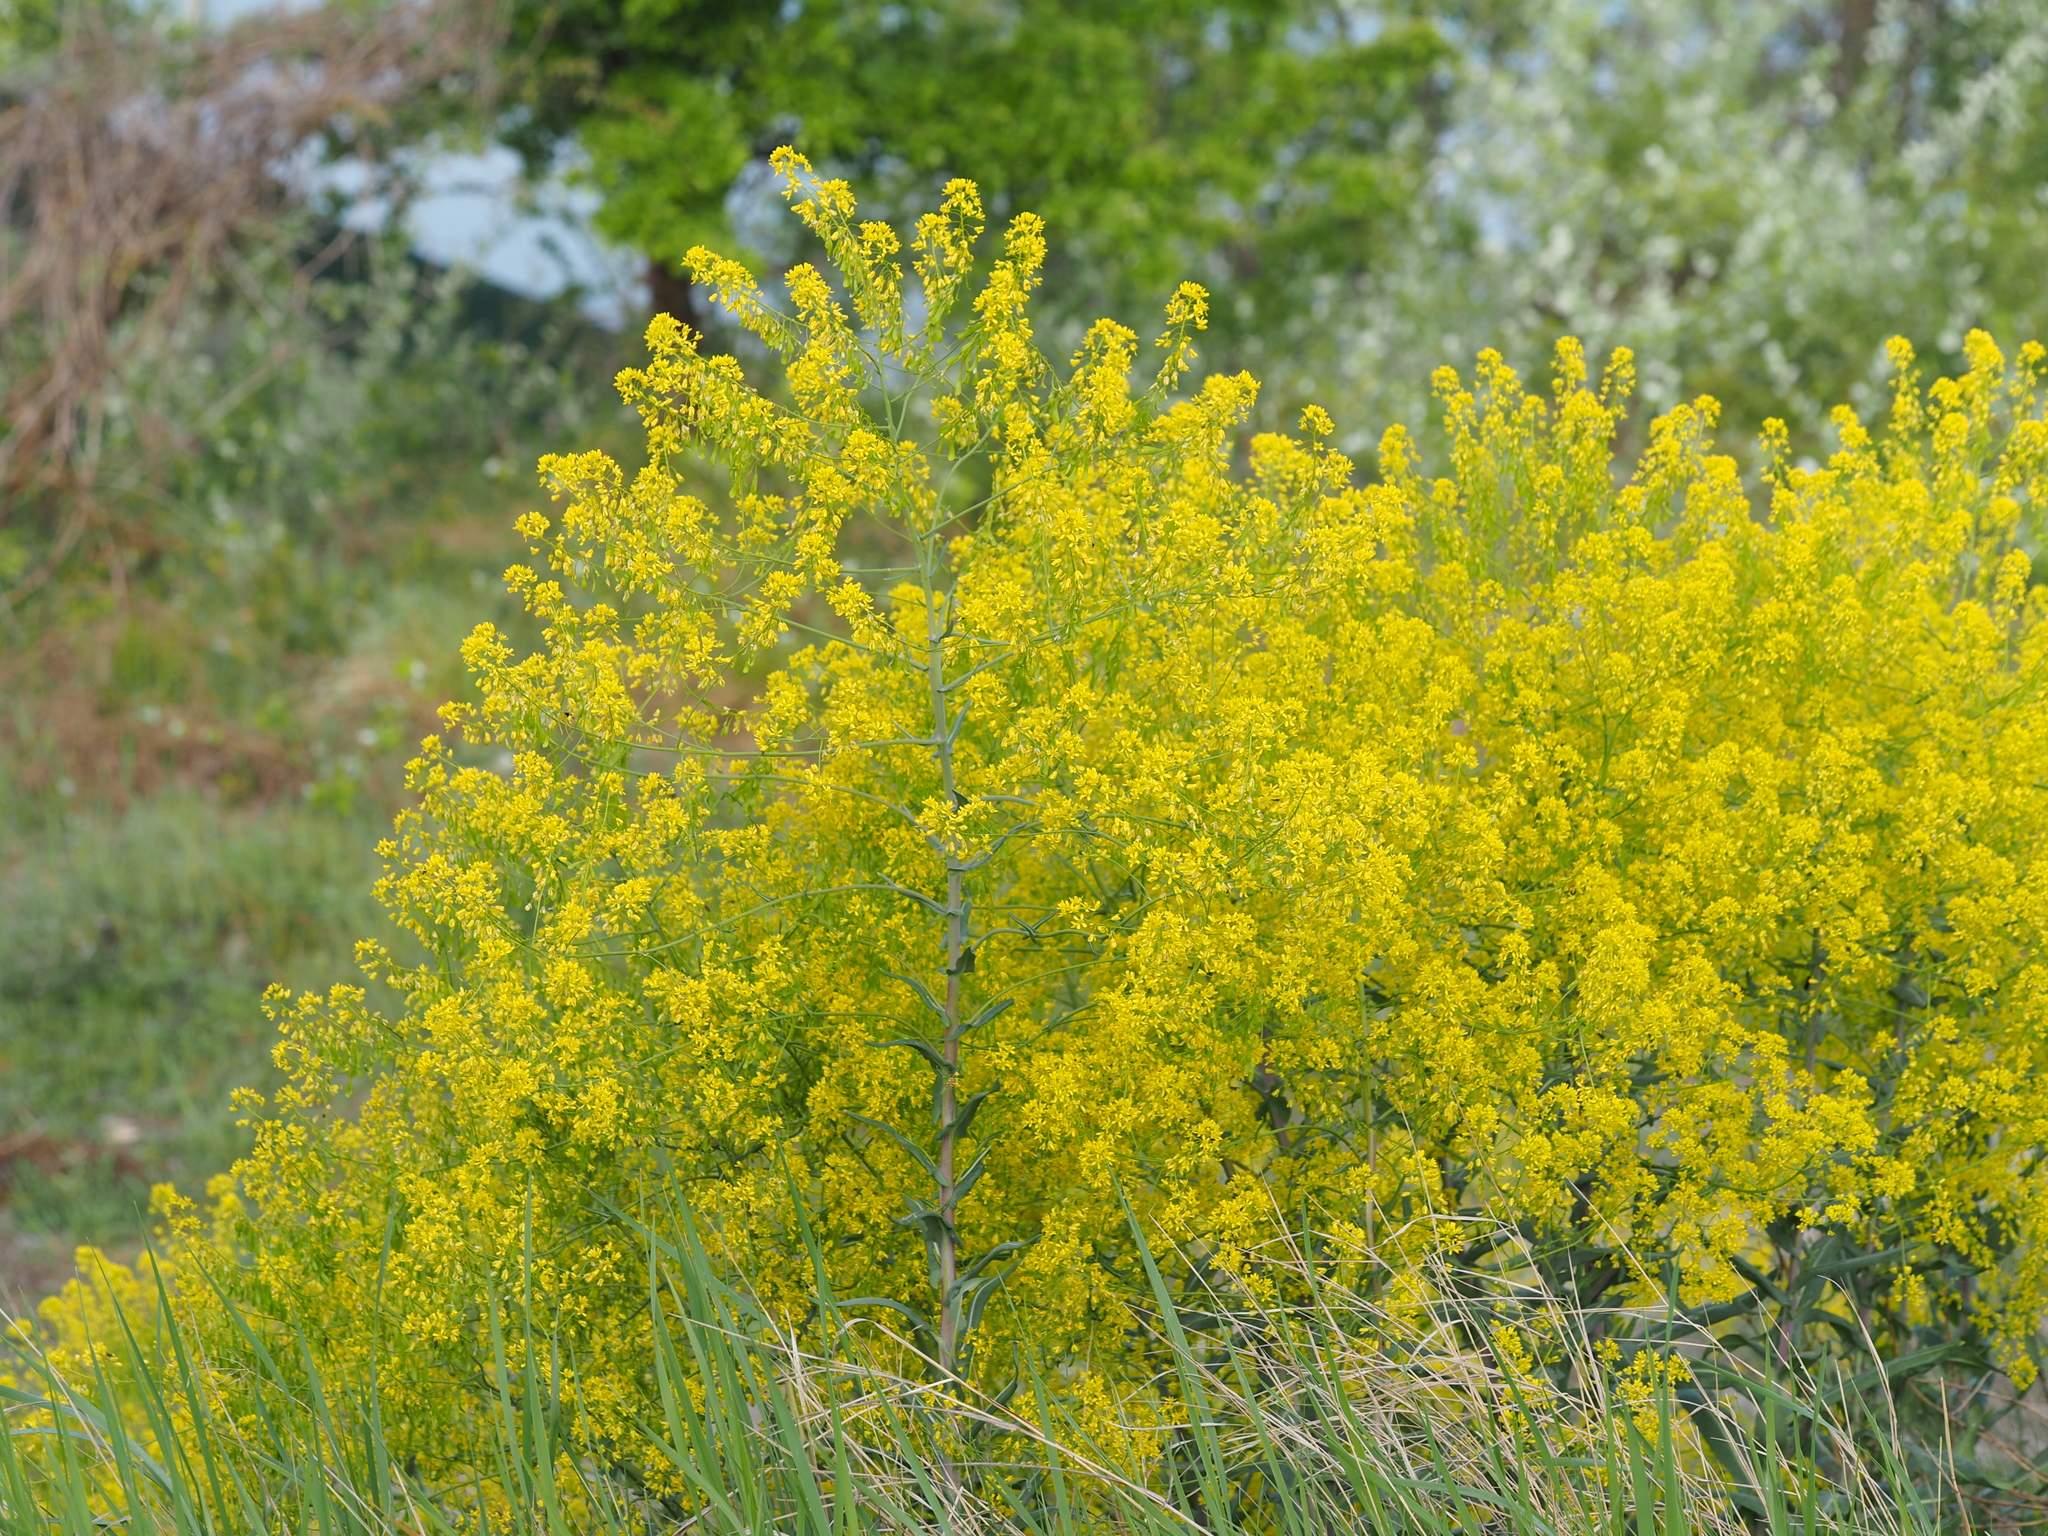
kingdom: Plantae
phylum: Tracheophyta
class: Magnoliopsida
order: Brassicales
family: Brassicaceae
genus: Isatis
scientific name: Isatis tinctoria
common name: Woad
